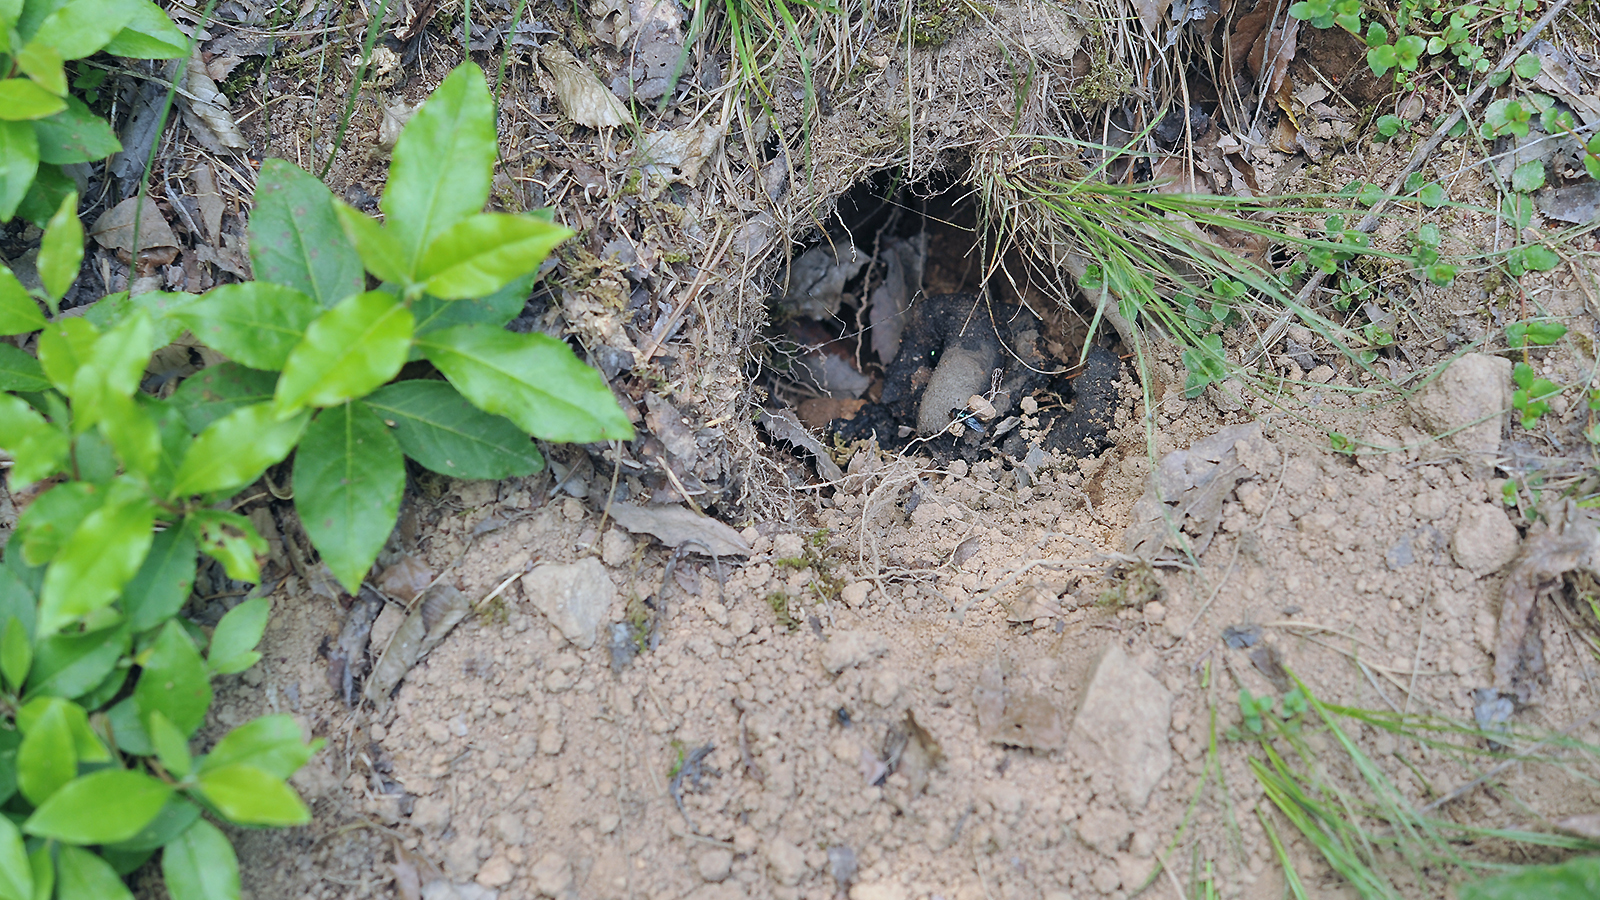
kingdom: Animalia
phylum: Chordata
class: Mammalia
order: Carnivora
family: Mustelidae
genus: Meles
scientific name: Meles leucurus
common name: Asian badger
